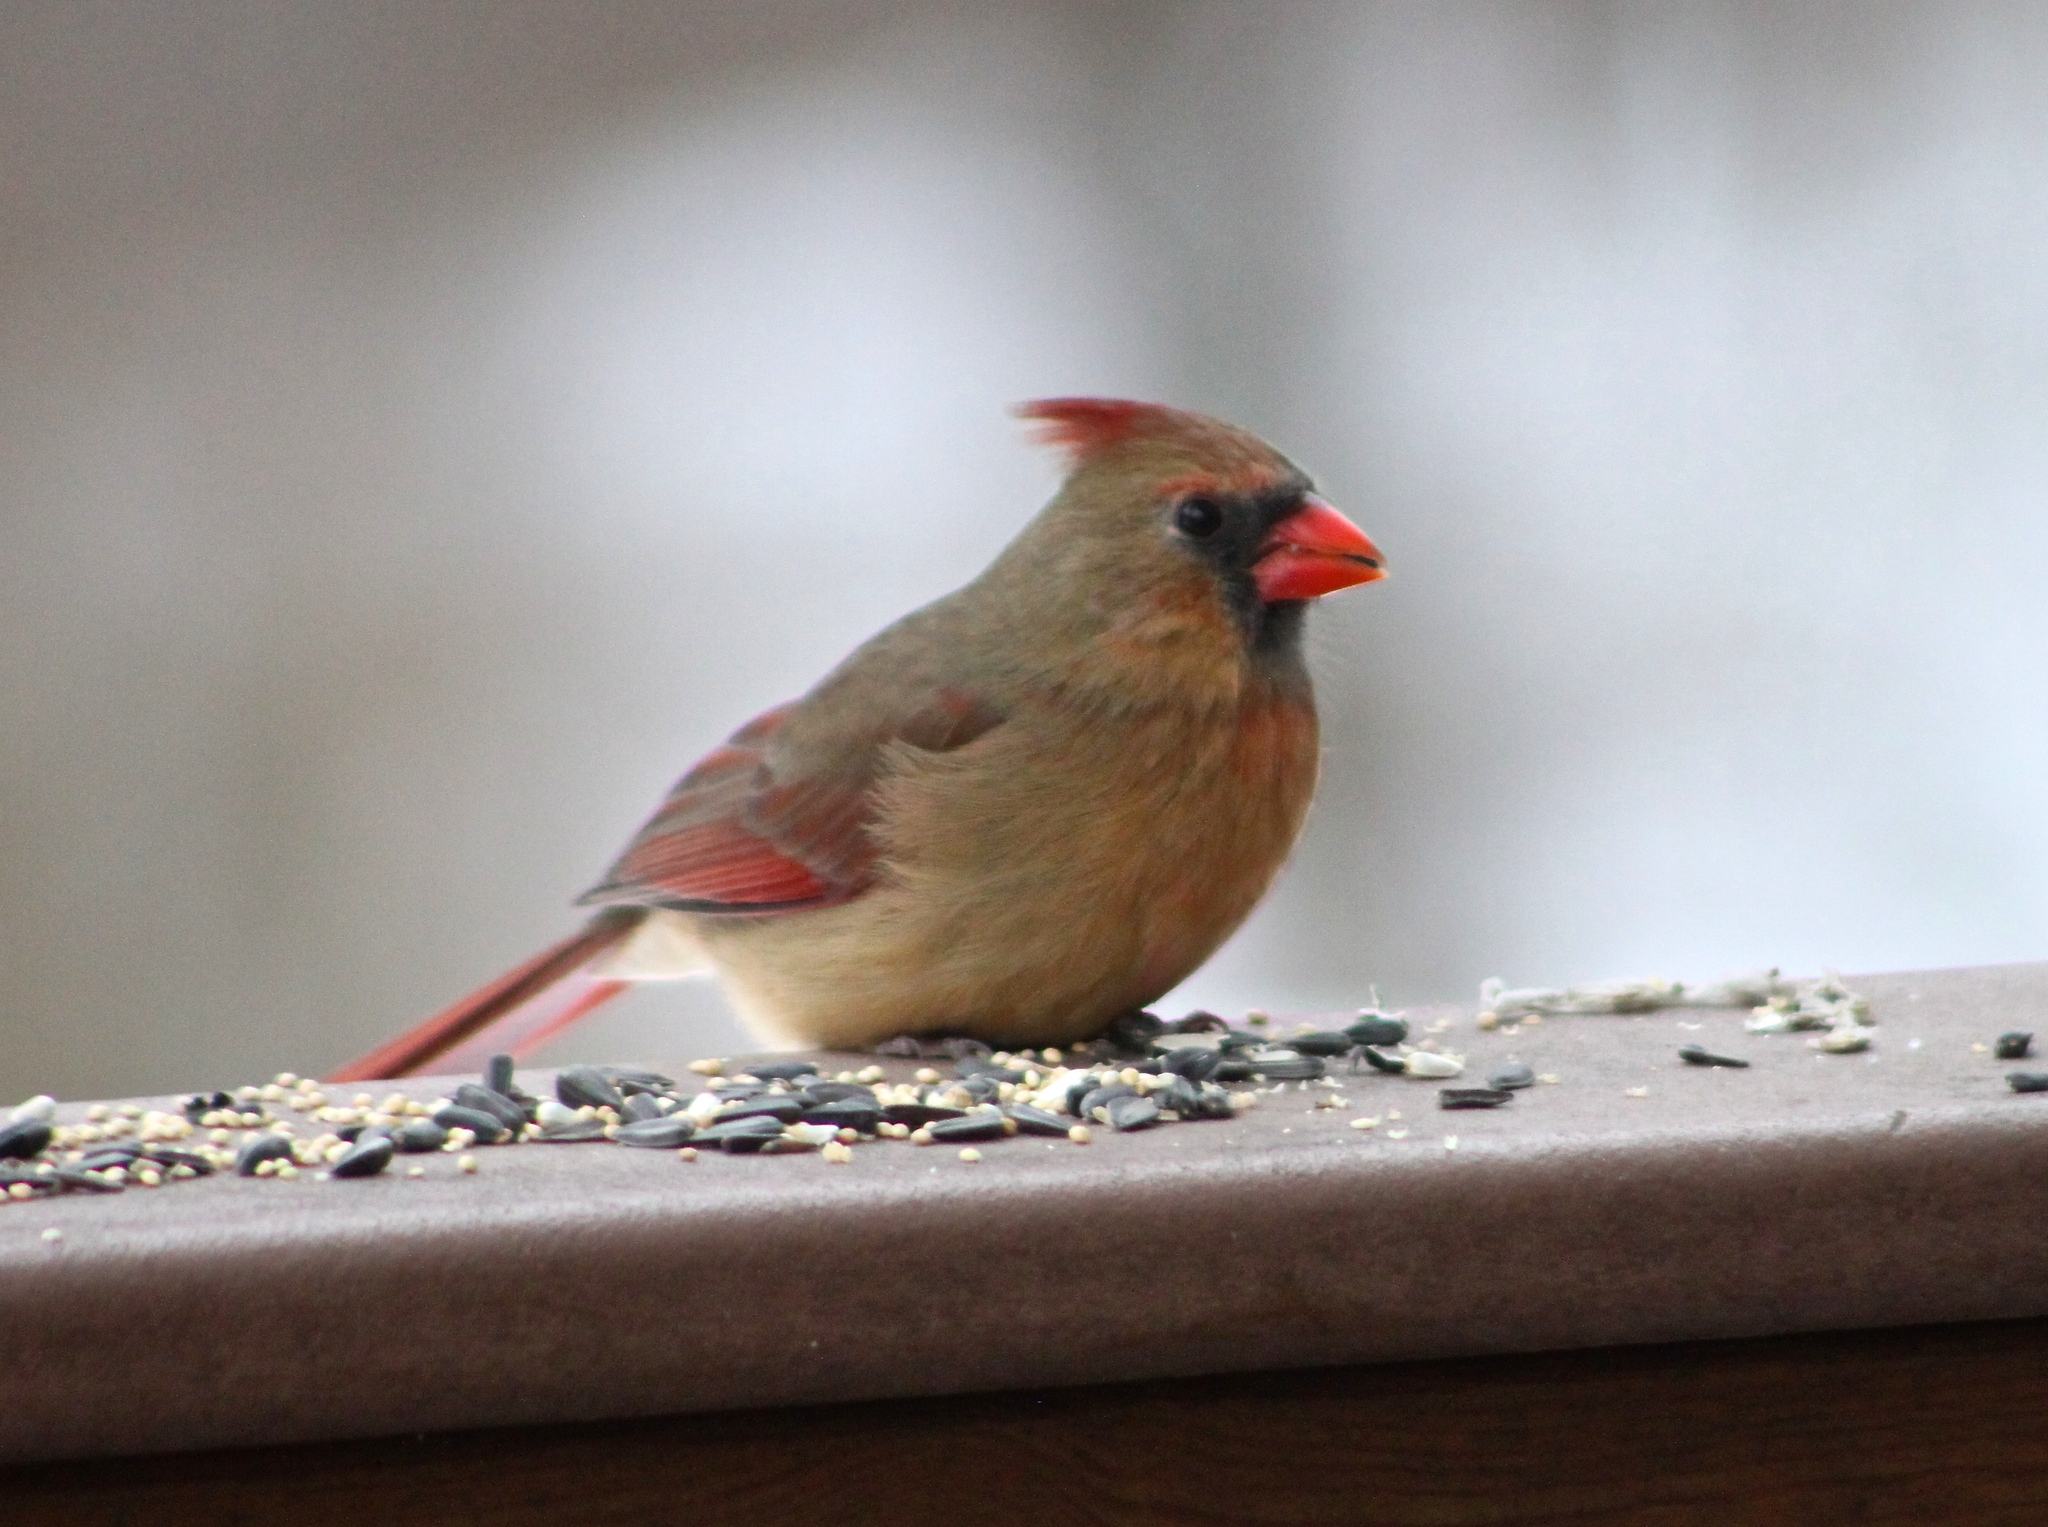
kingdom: Animalia
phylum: Chordata
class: Aves
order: Passeriformes
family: Cardinalidae
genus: Cardinalis
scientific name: Cardinalis cardinalis
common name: Northern cardinal
